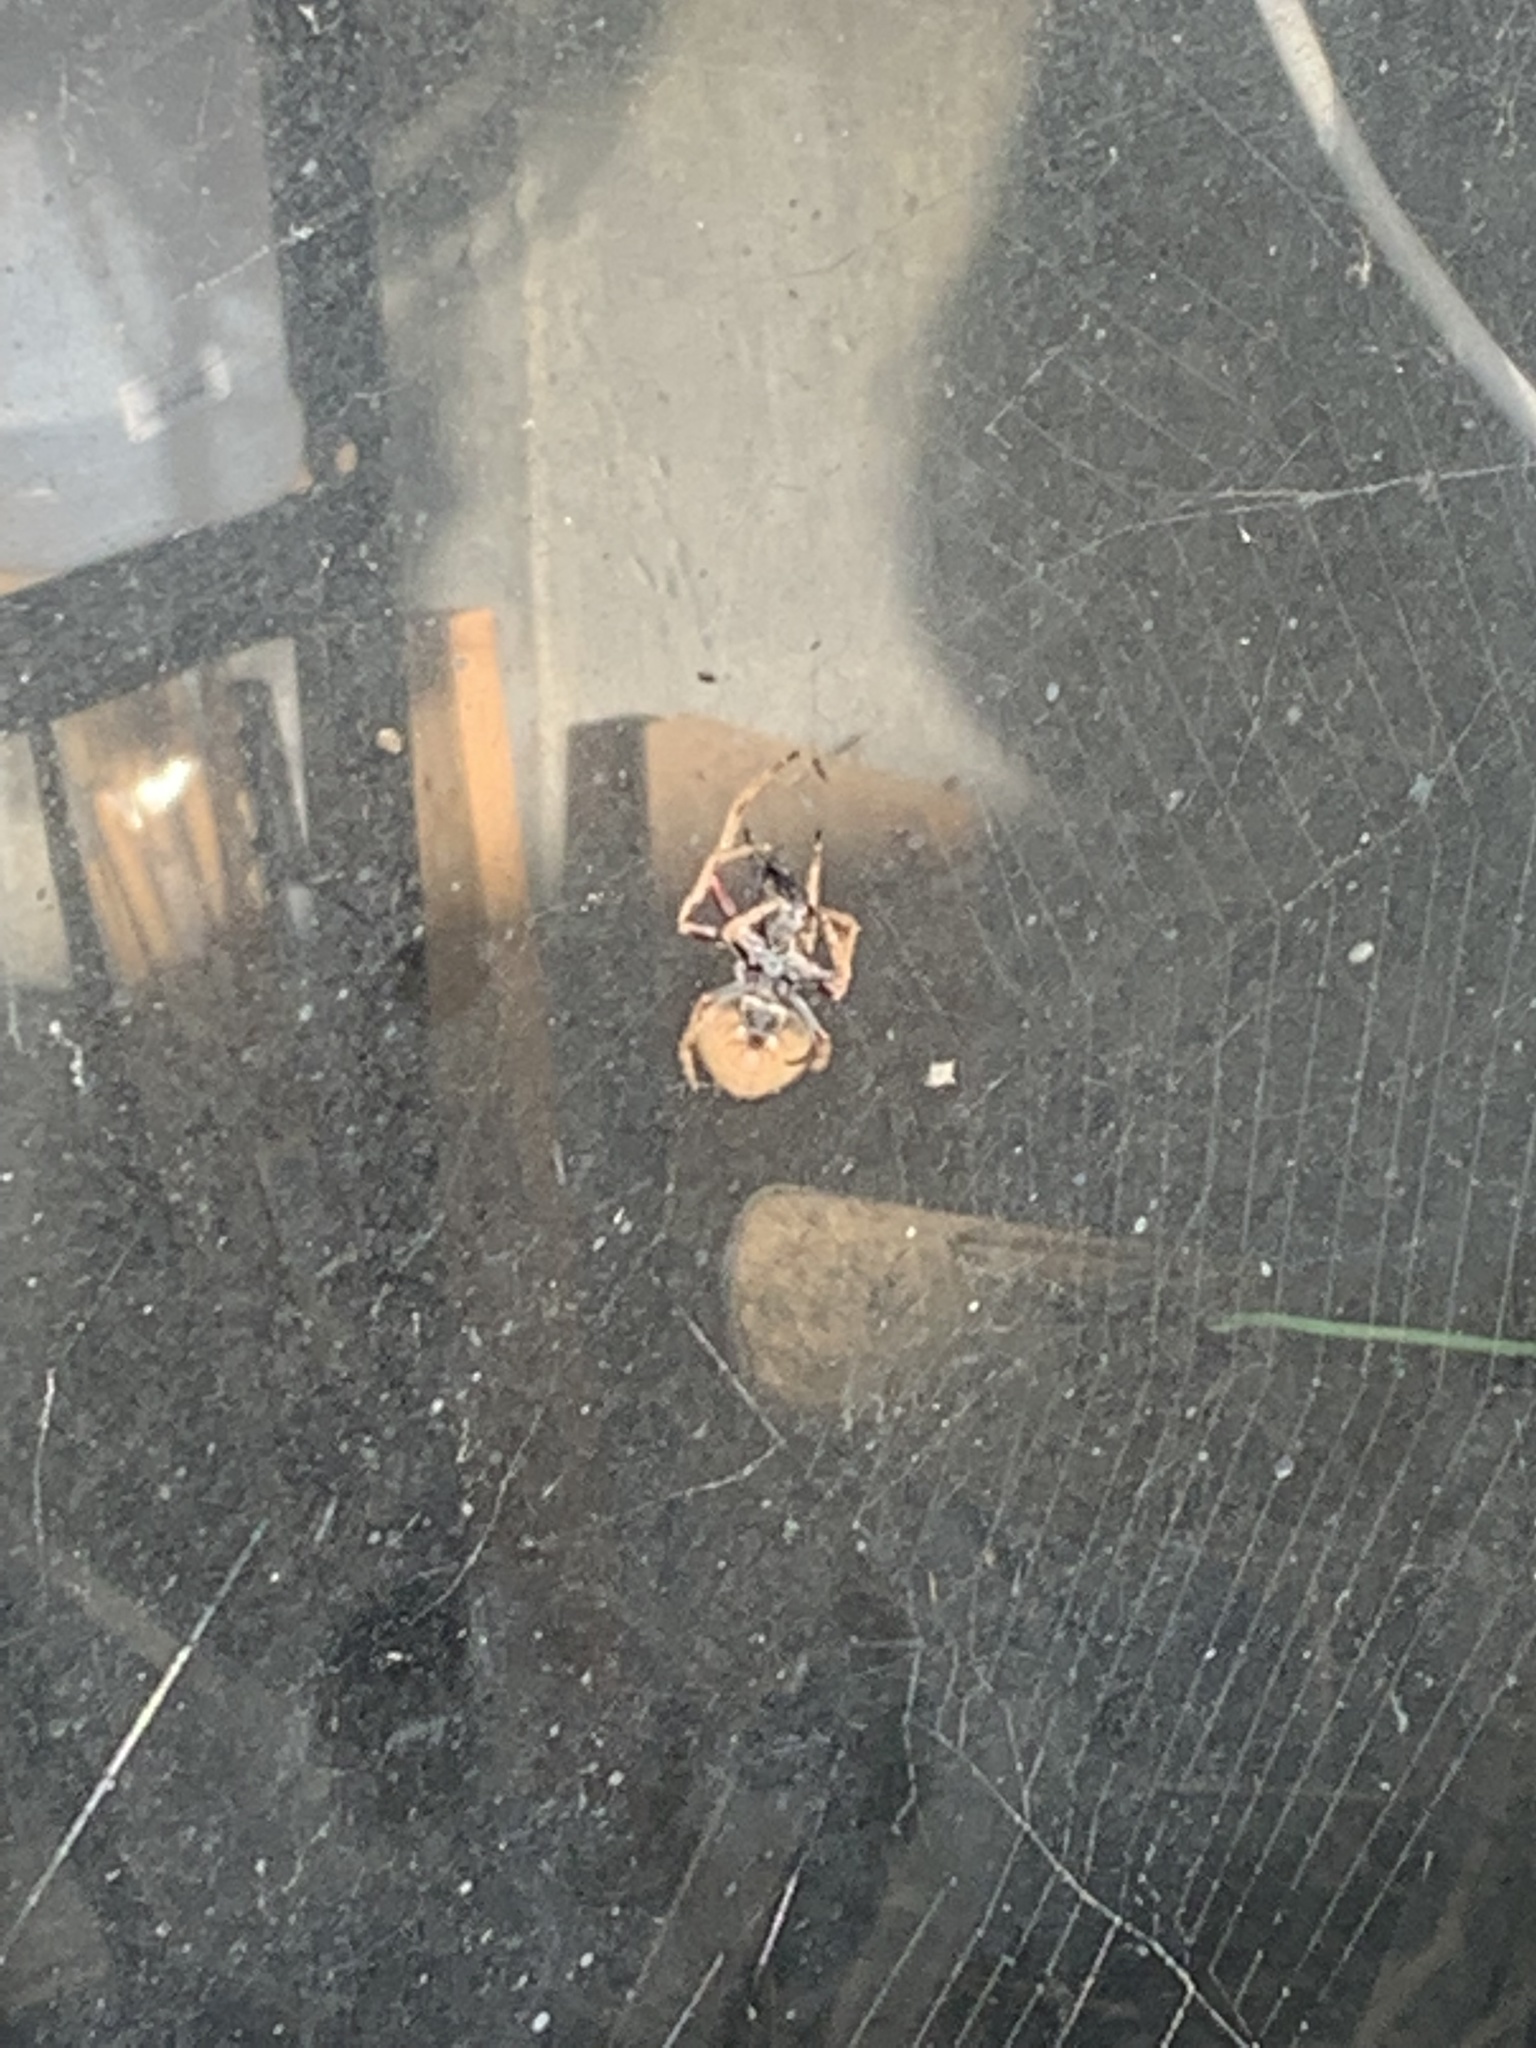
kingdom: Animalia
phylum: Arthropoda
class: Arachnida
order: Araneae
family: Araneidae
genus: Eriophora
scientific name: Eriophora pustulosa
